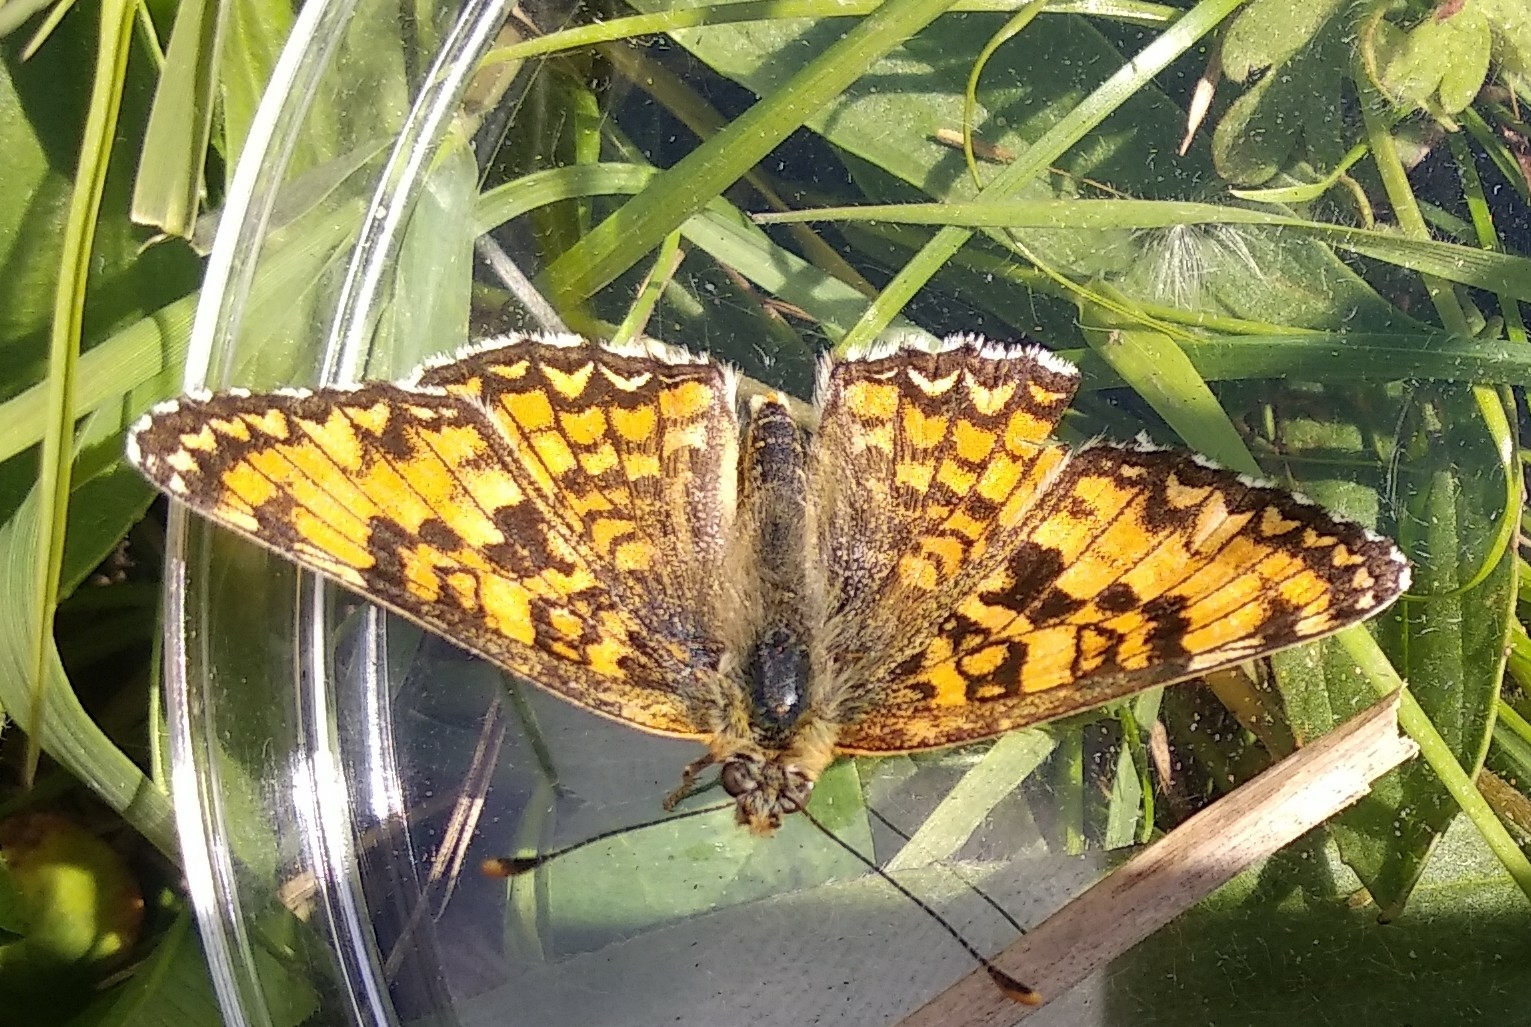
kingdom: Animalia
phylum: Arthropoda
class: Insecta
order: Lepidoptera
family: Nymphalidae
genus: Melitaea
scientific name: Melitaea pseudornata
